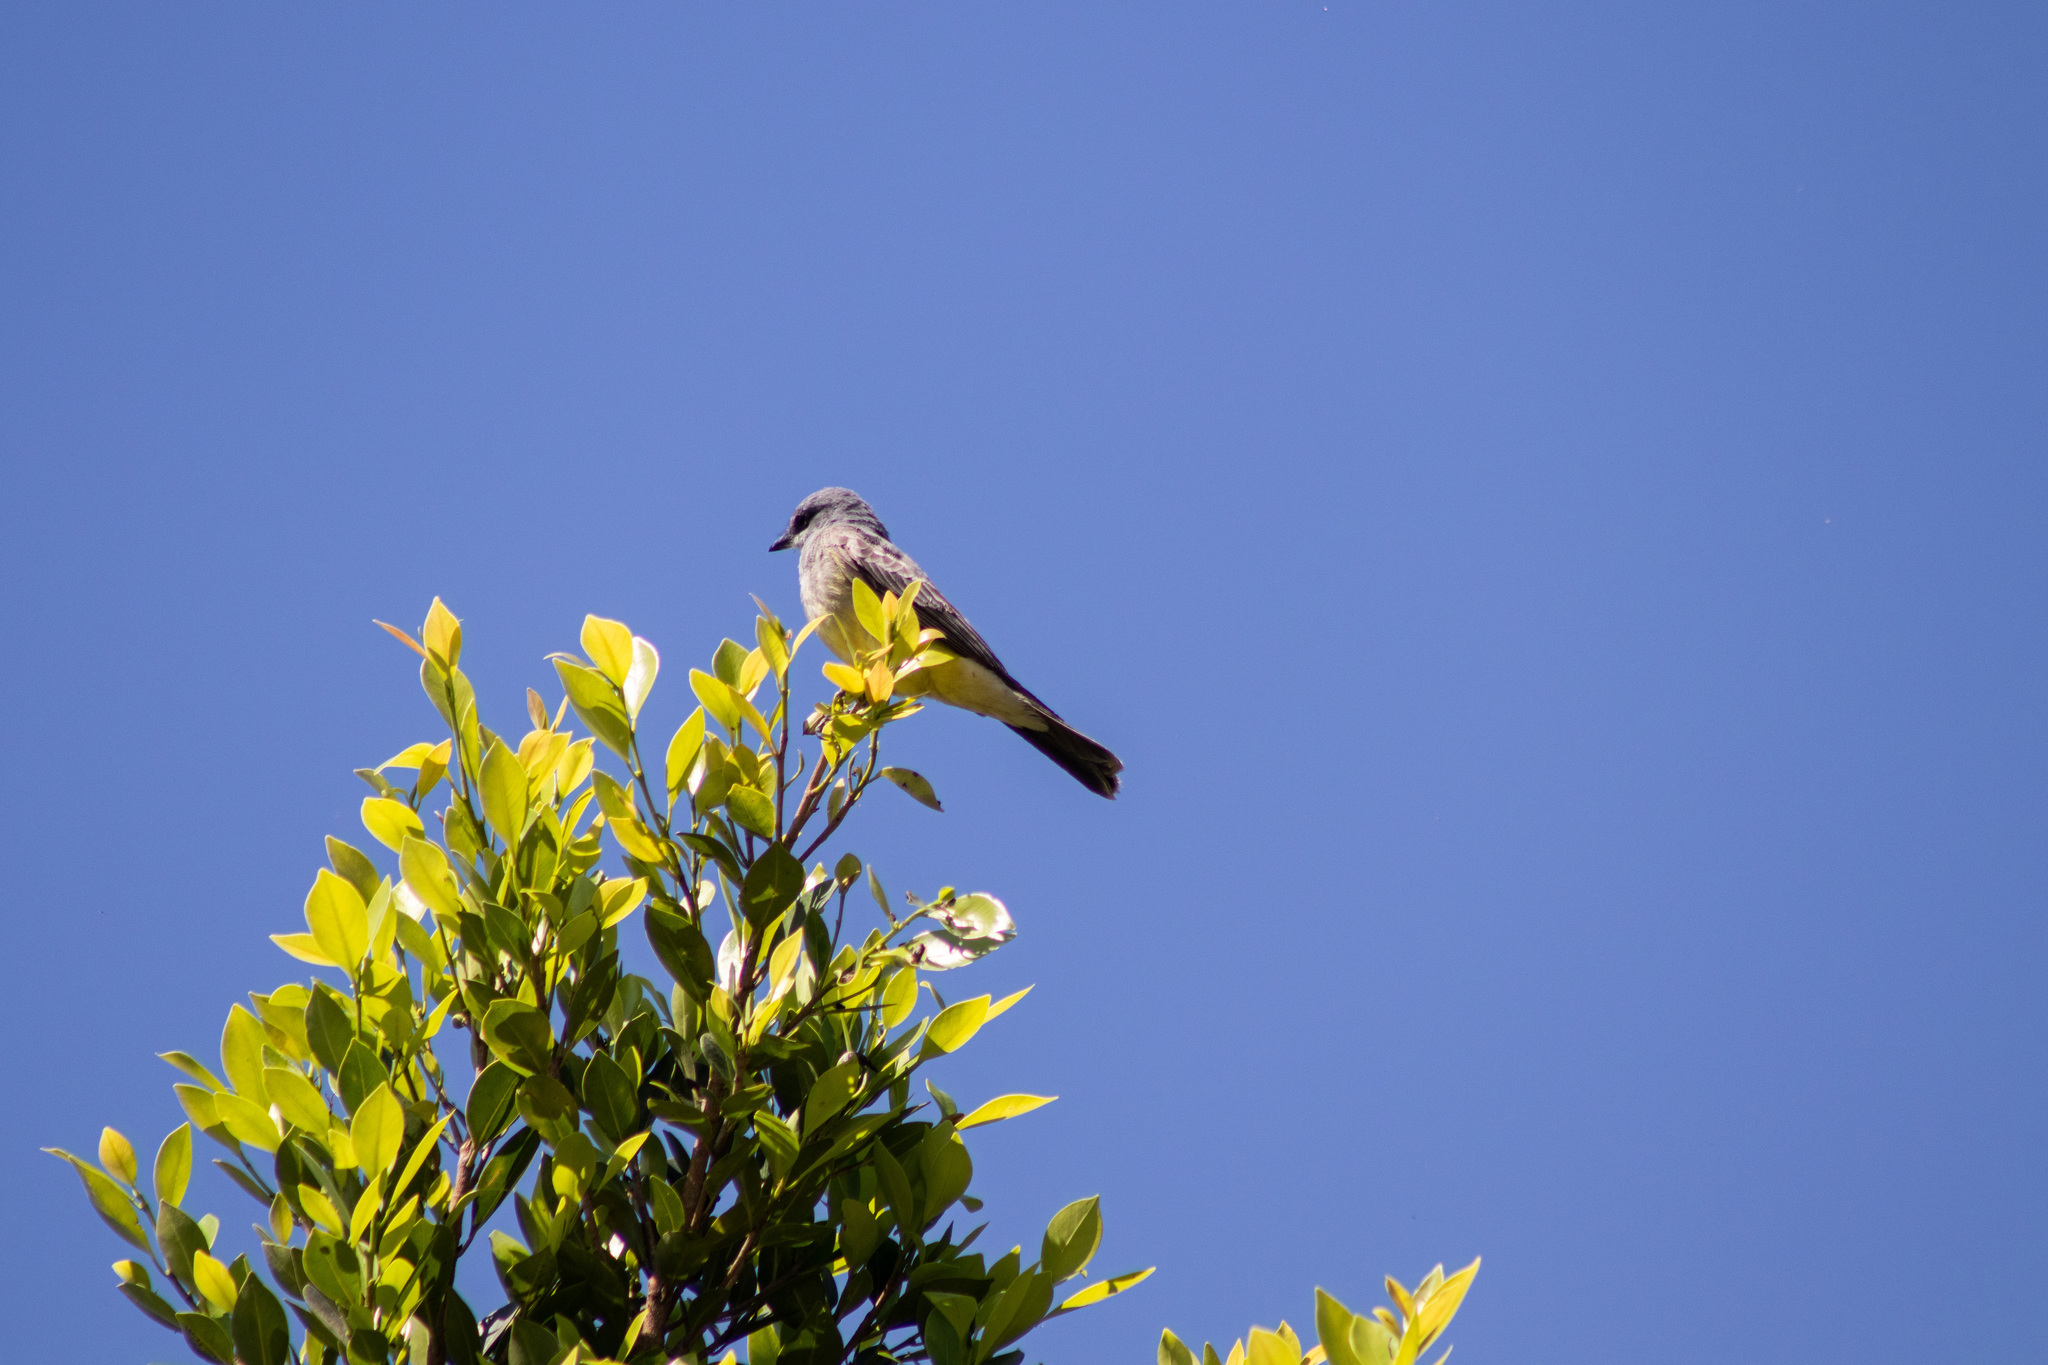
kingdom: Animalia
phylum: Chordata
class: Aves
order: Passeriformes
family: Tyrannidae
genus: Tyrannus
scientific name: Tyrannus vociferans
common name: Cassin's kingbird
